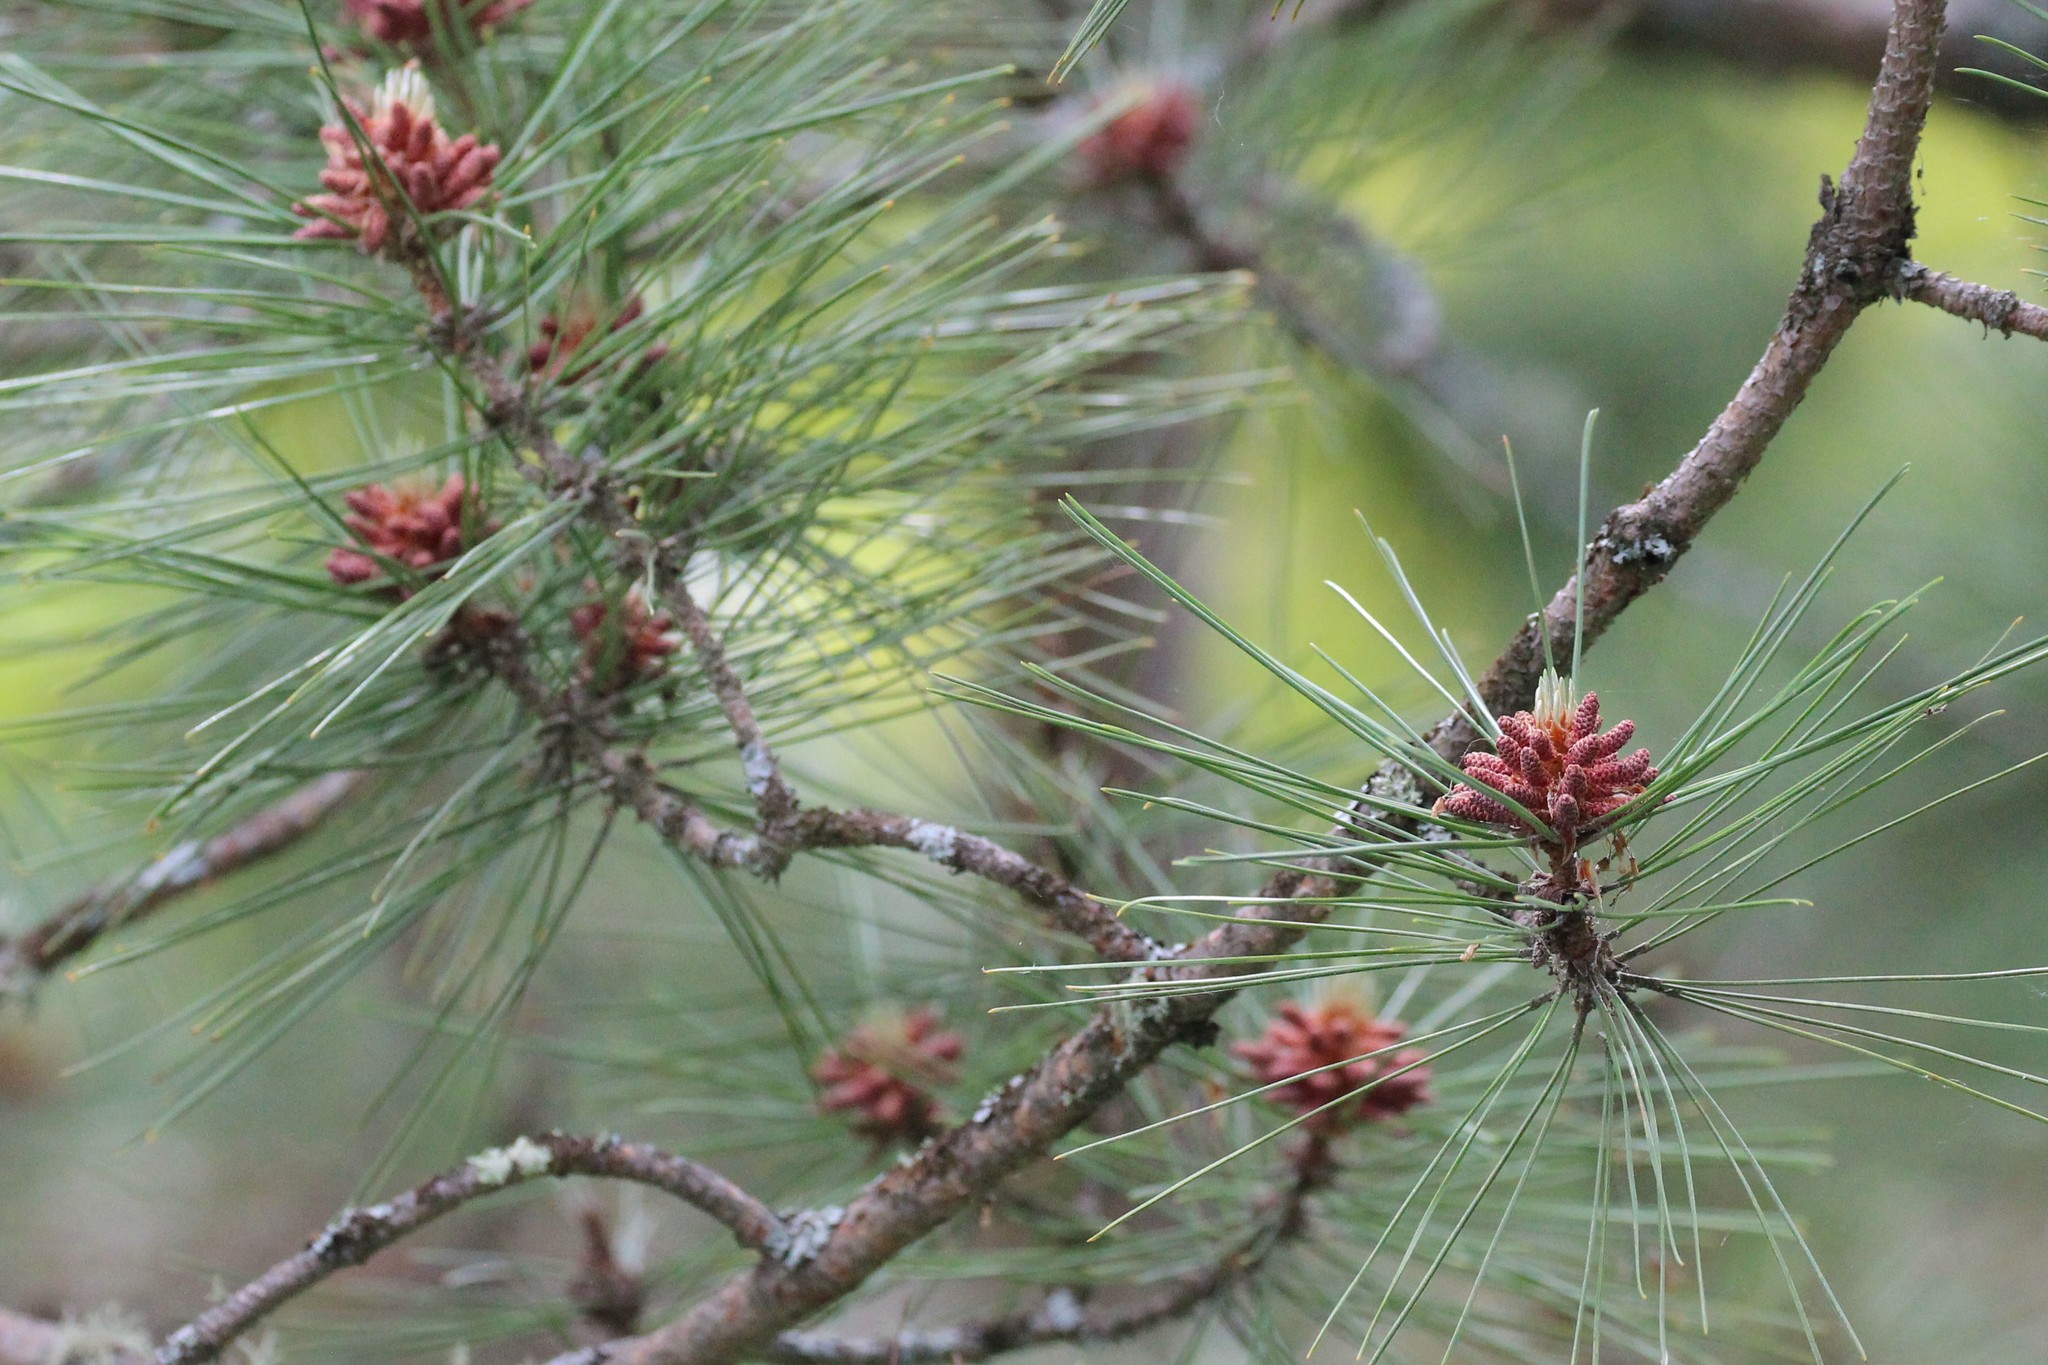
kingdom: Plantae
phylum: Tracheophyta
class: Pinopsida
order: Pinales
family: Pinaceae
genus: Pinus
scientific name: Pinus resinosa
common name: Norway pine
